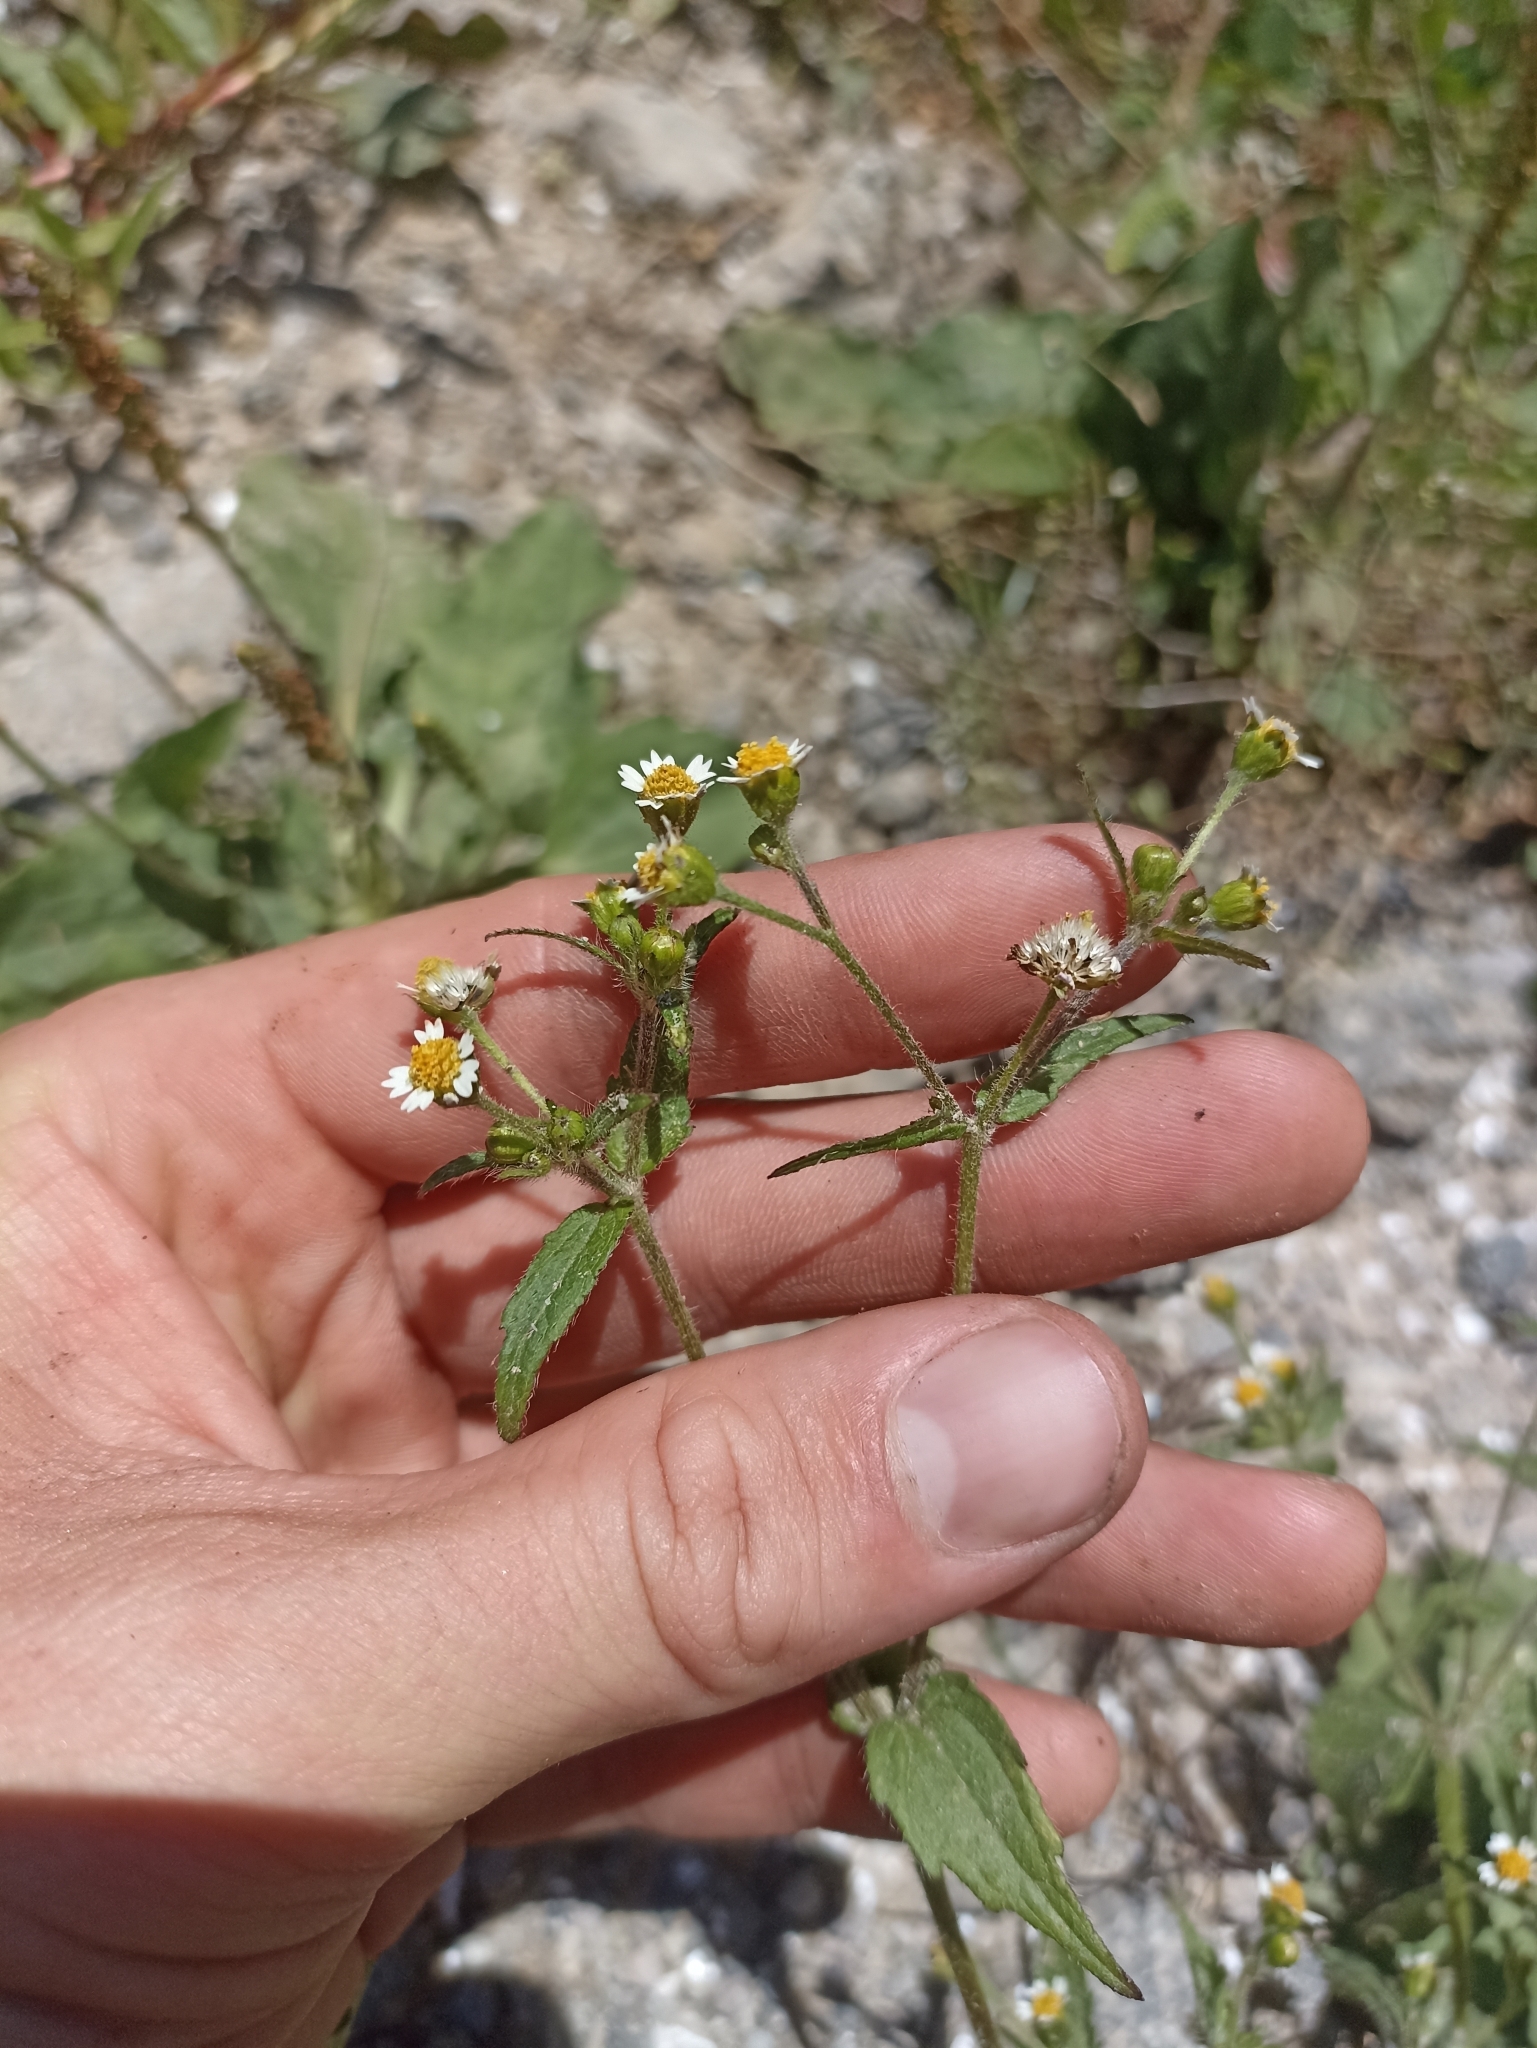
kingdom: Plantae
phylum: Tracheophyta
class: Magnoliopsida
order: Asterales
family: Asteraceae
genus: Galinsoga
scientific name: Galinsoga quadriradiata
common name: Shaggy soldier
